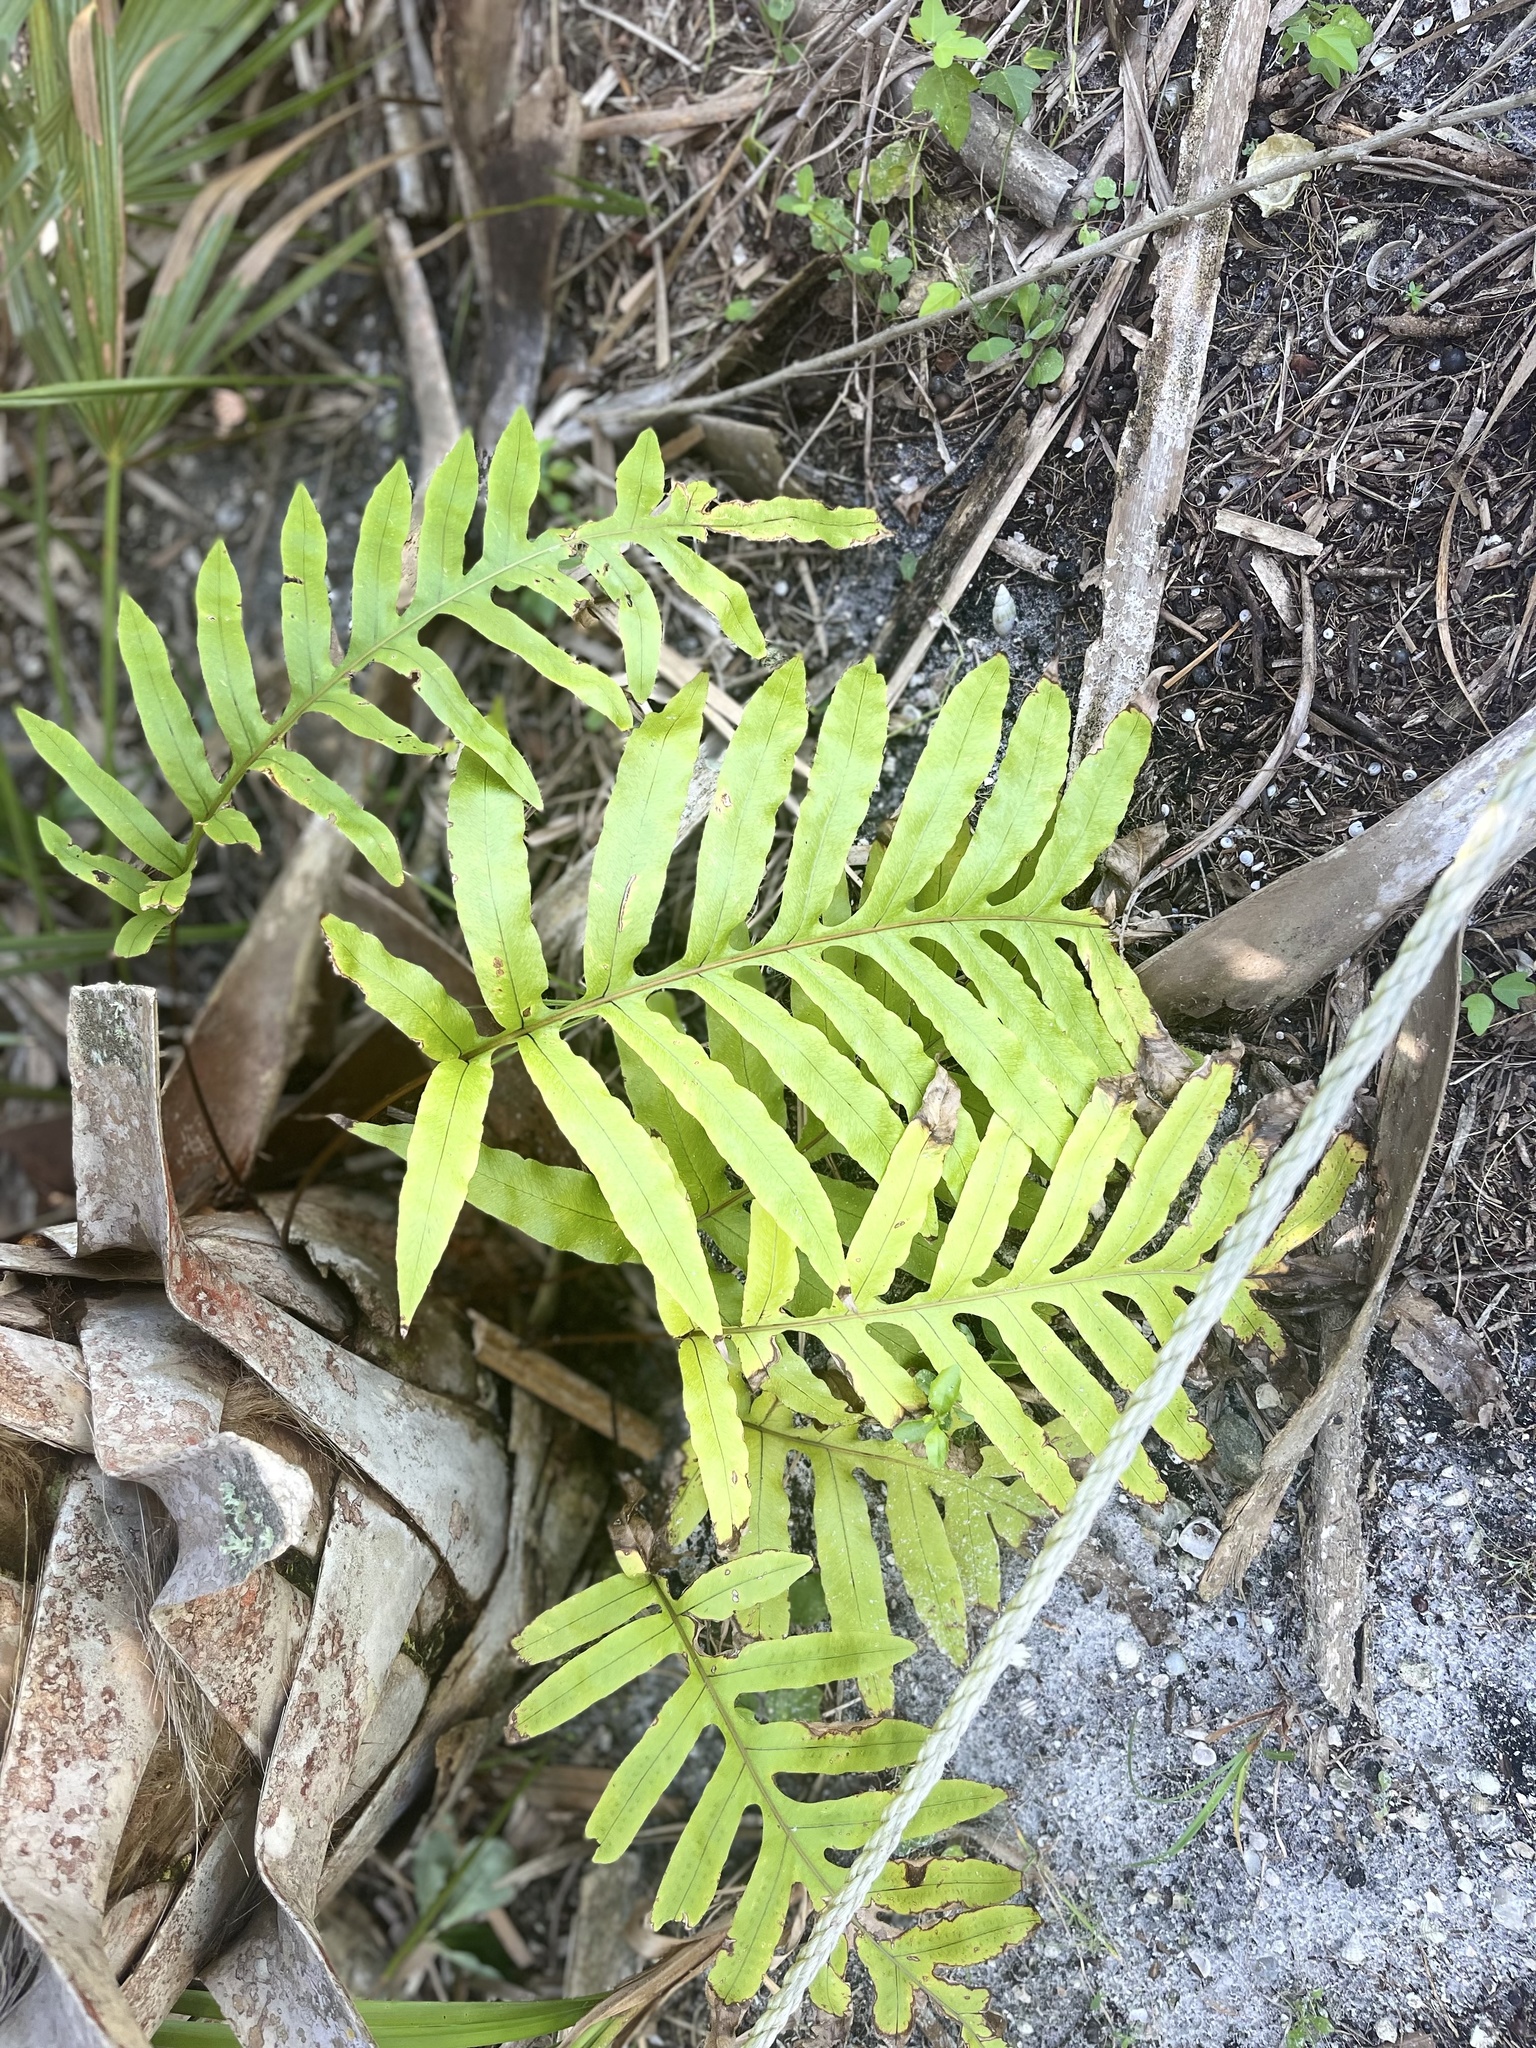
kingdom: Plantae
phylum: Tracheophyta
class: Polypodiopsida
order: Polypodiales
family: Polypodiaceae
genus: Phlebodium
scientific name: Phlebodium aureum
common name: Gold-foot fern
